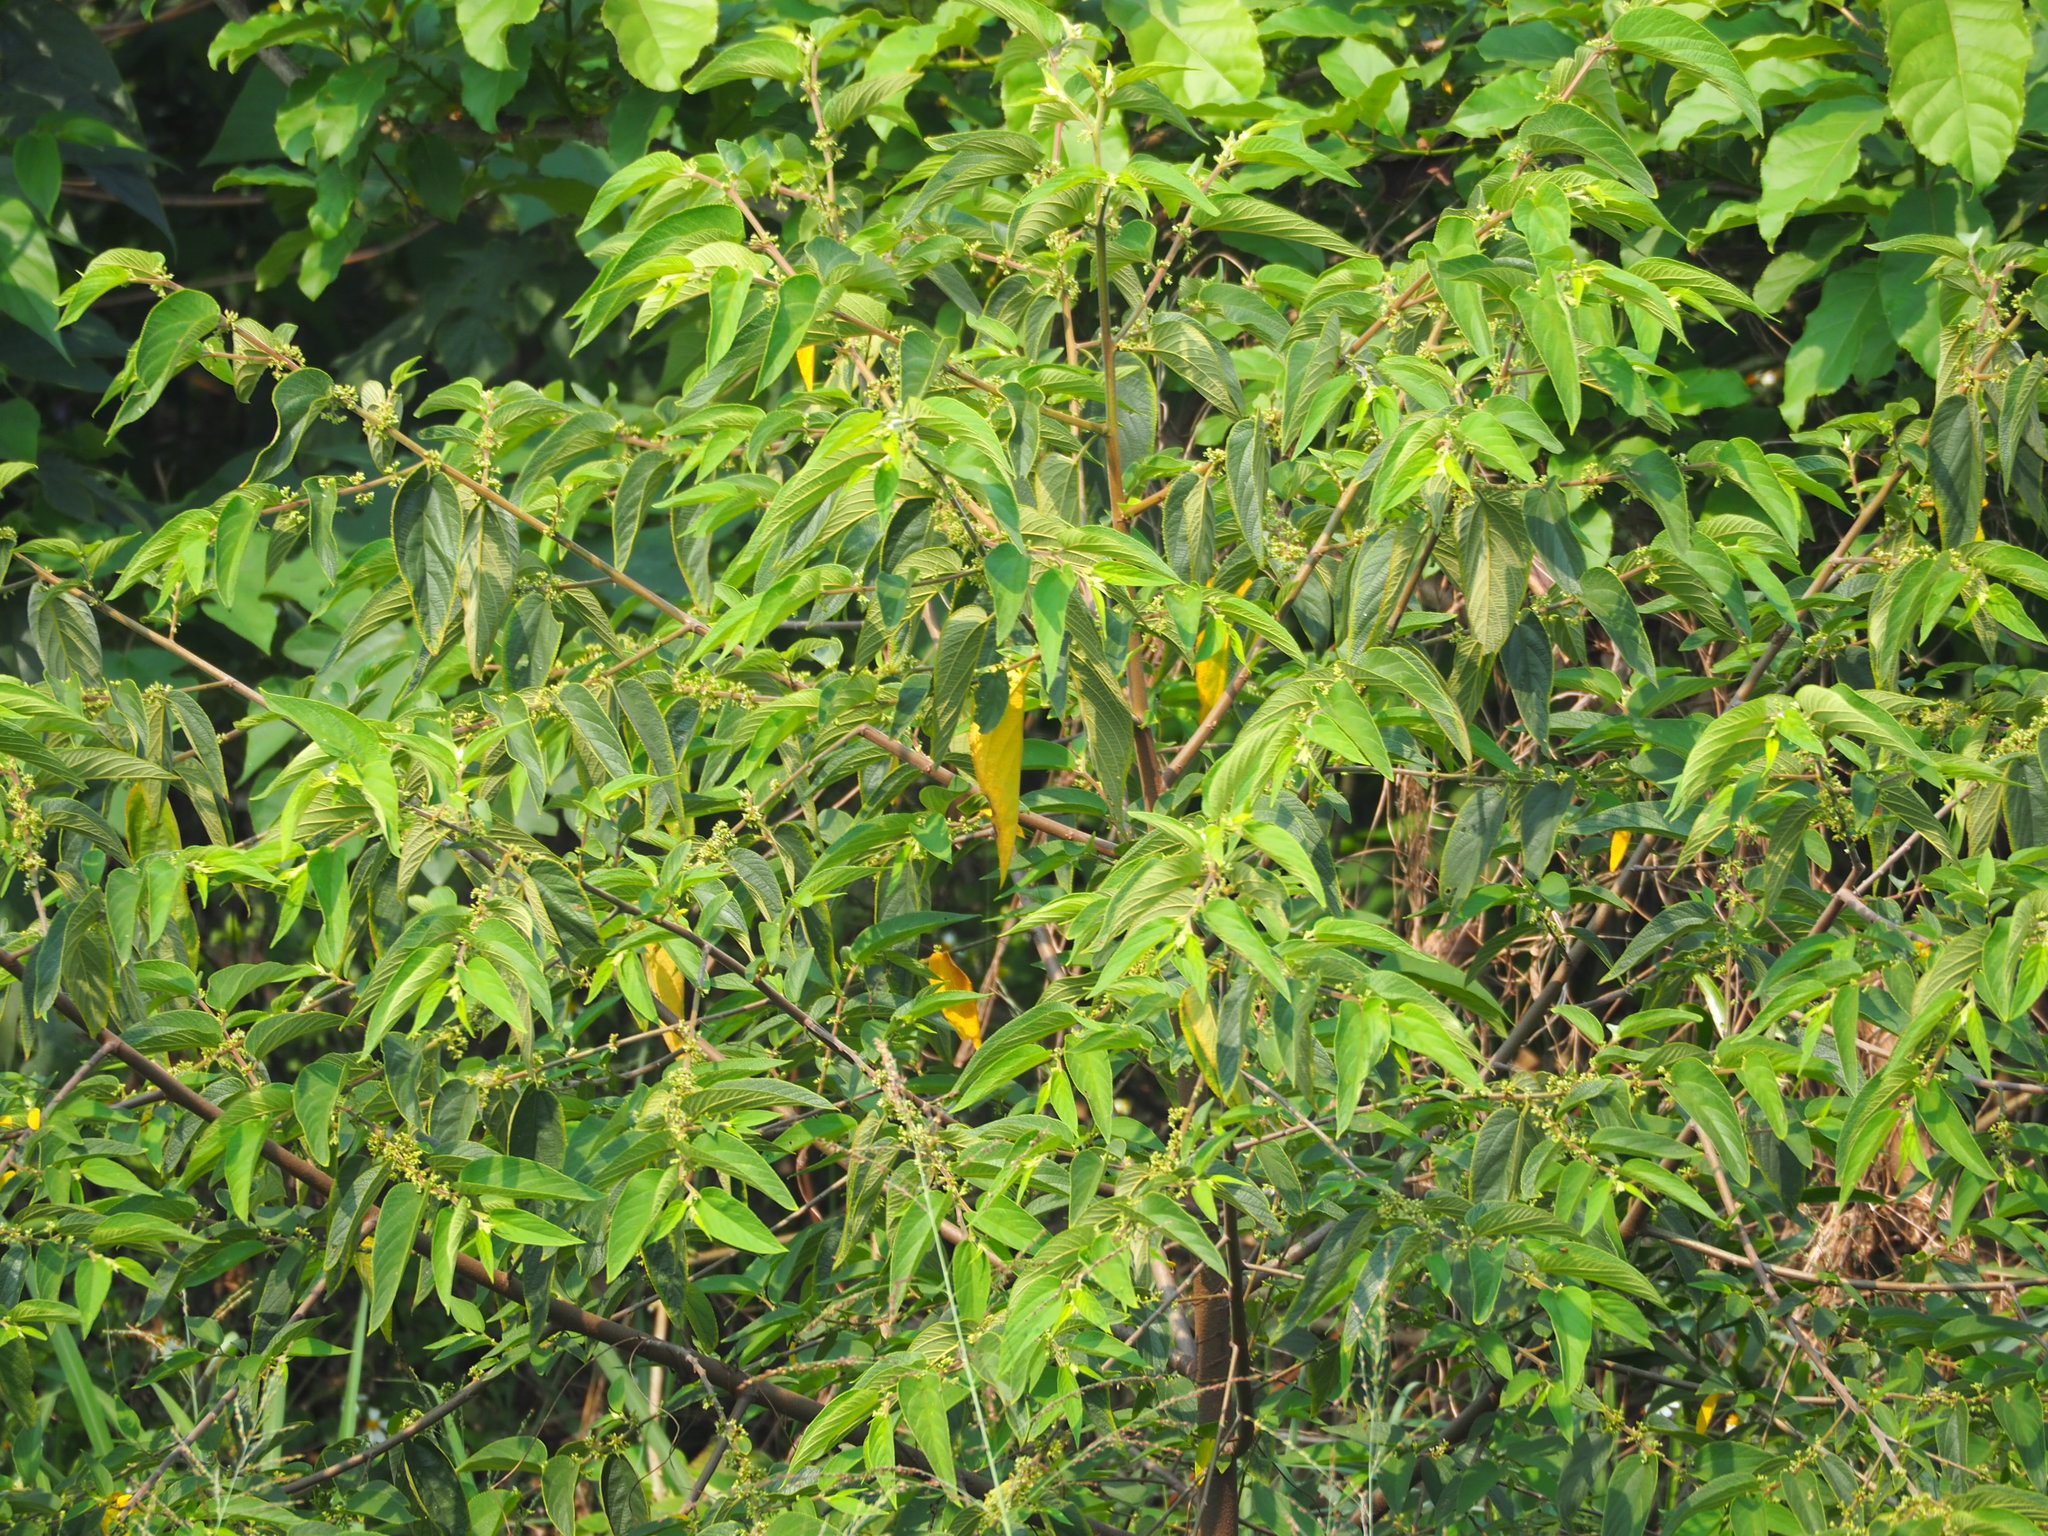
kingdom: Plantae
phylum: Tracheophyta
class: Magnoliopsida
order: Rosales
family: Cannabaceae
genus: Trema
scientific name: Trema orientale
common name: Indian charcoal tree
